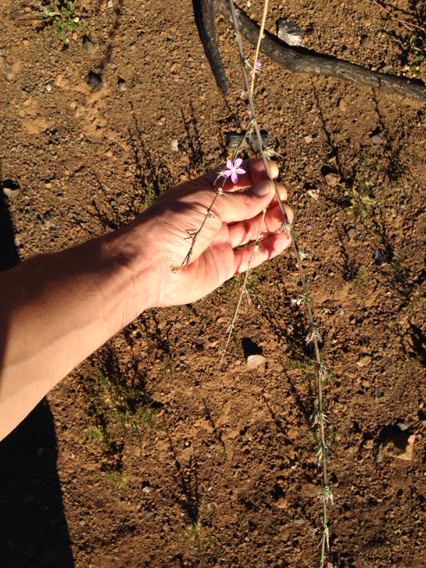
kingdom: Plantae
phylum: Tracheophyta
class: Magnoliopsida
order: Asterales
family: Asteraceae
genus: Stephanomeria
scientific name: Stephanomeria virgata
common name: Virgate wirelettuce
